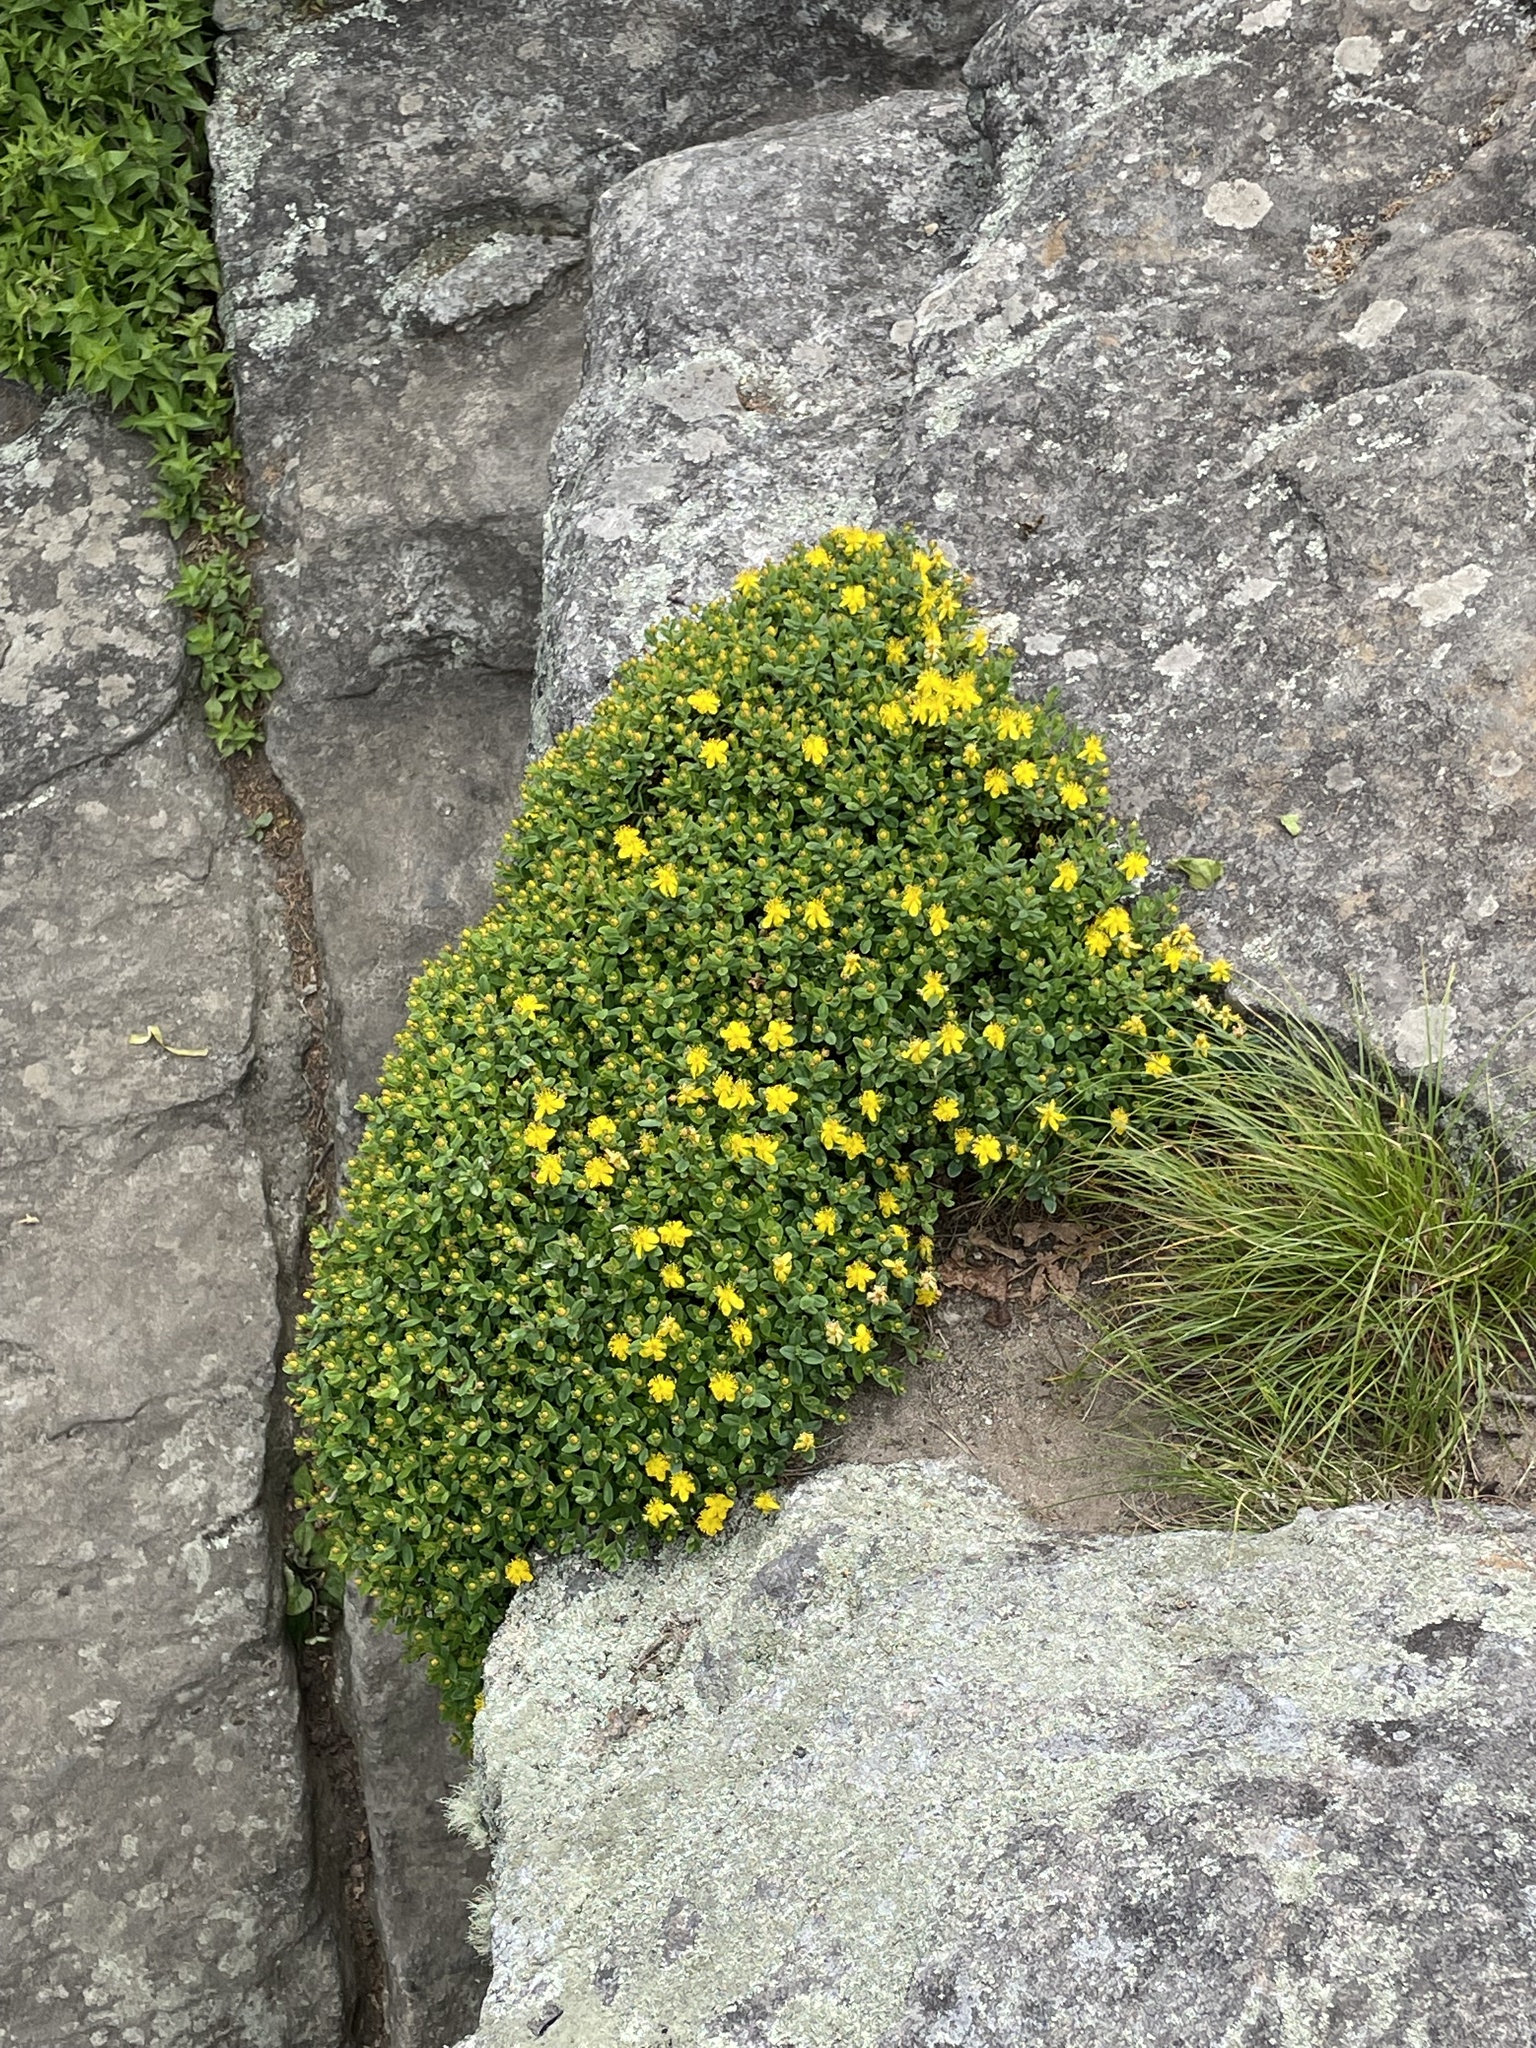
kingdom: Plantae
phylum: Tracheophyta
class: Magnoliopsida
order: Malpighiales
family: Hypericaceae
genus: Hypericum
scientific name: Hypericum buckleyi
